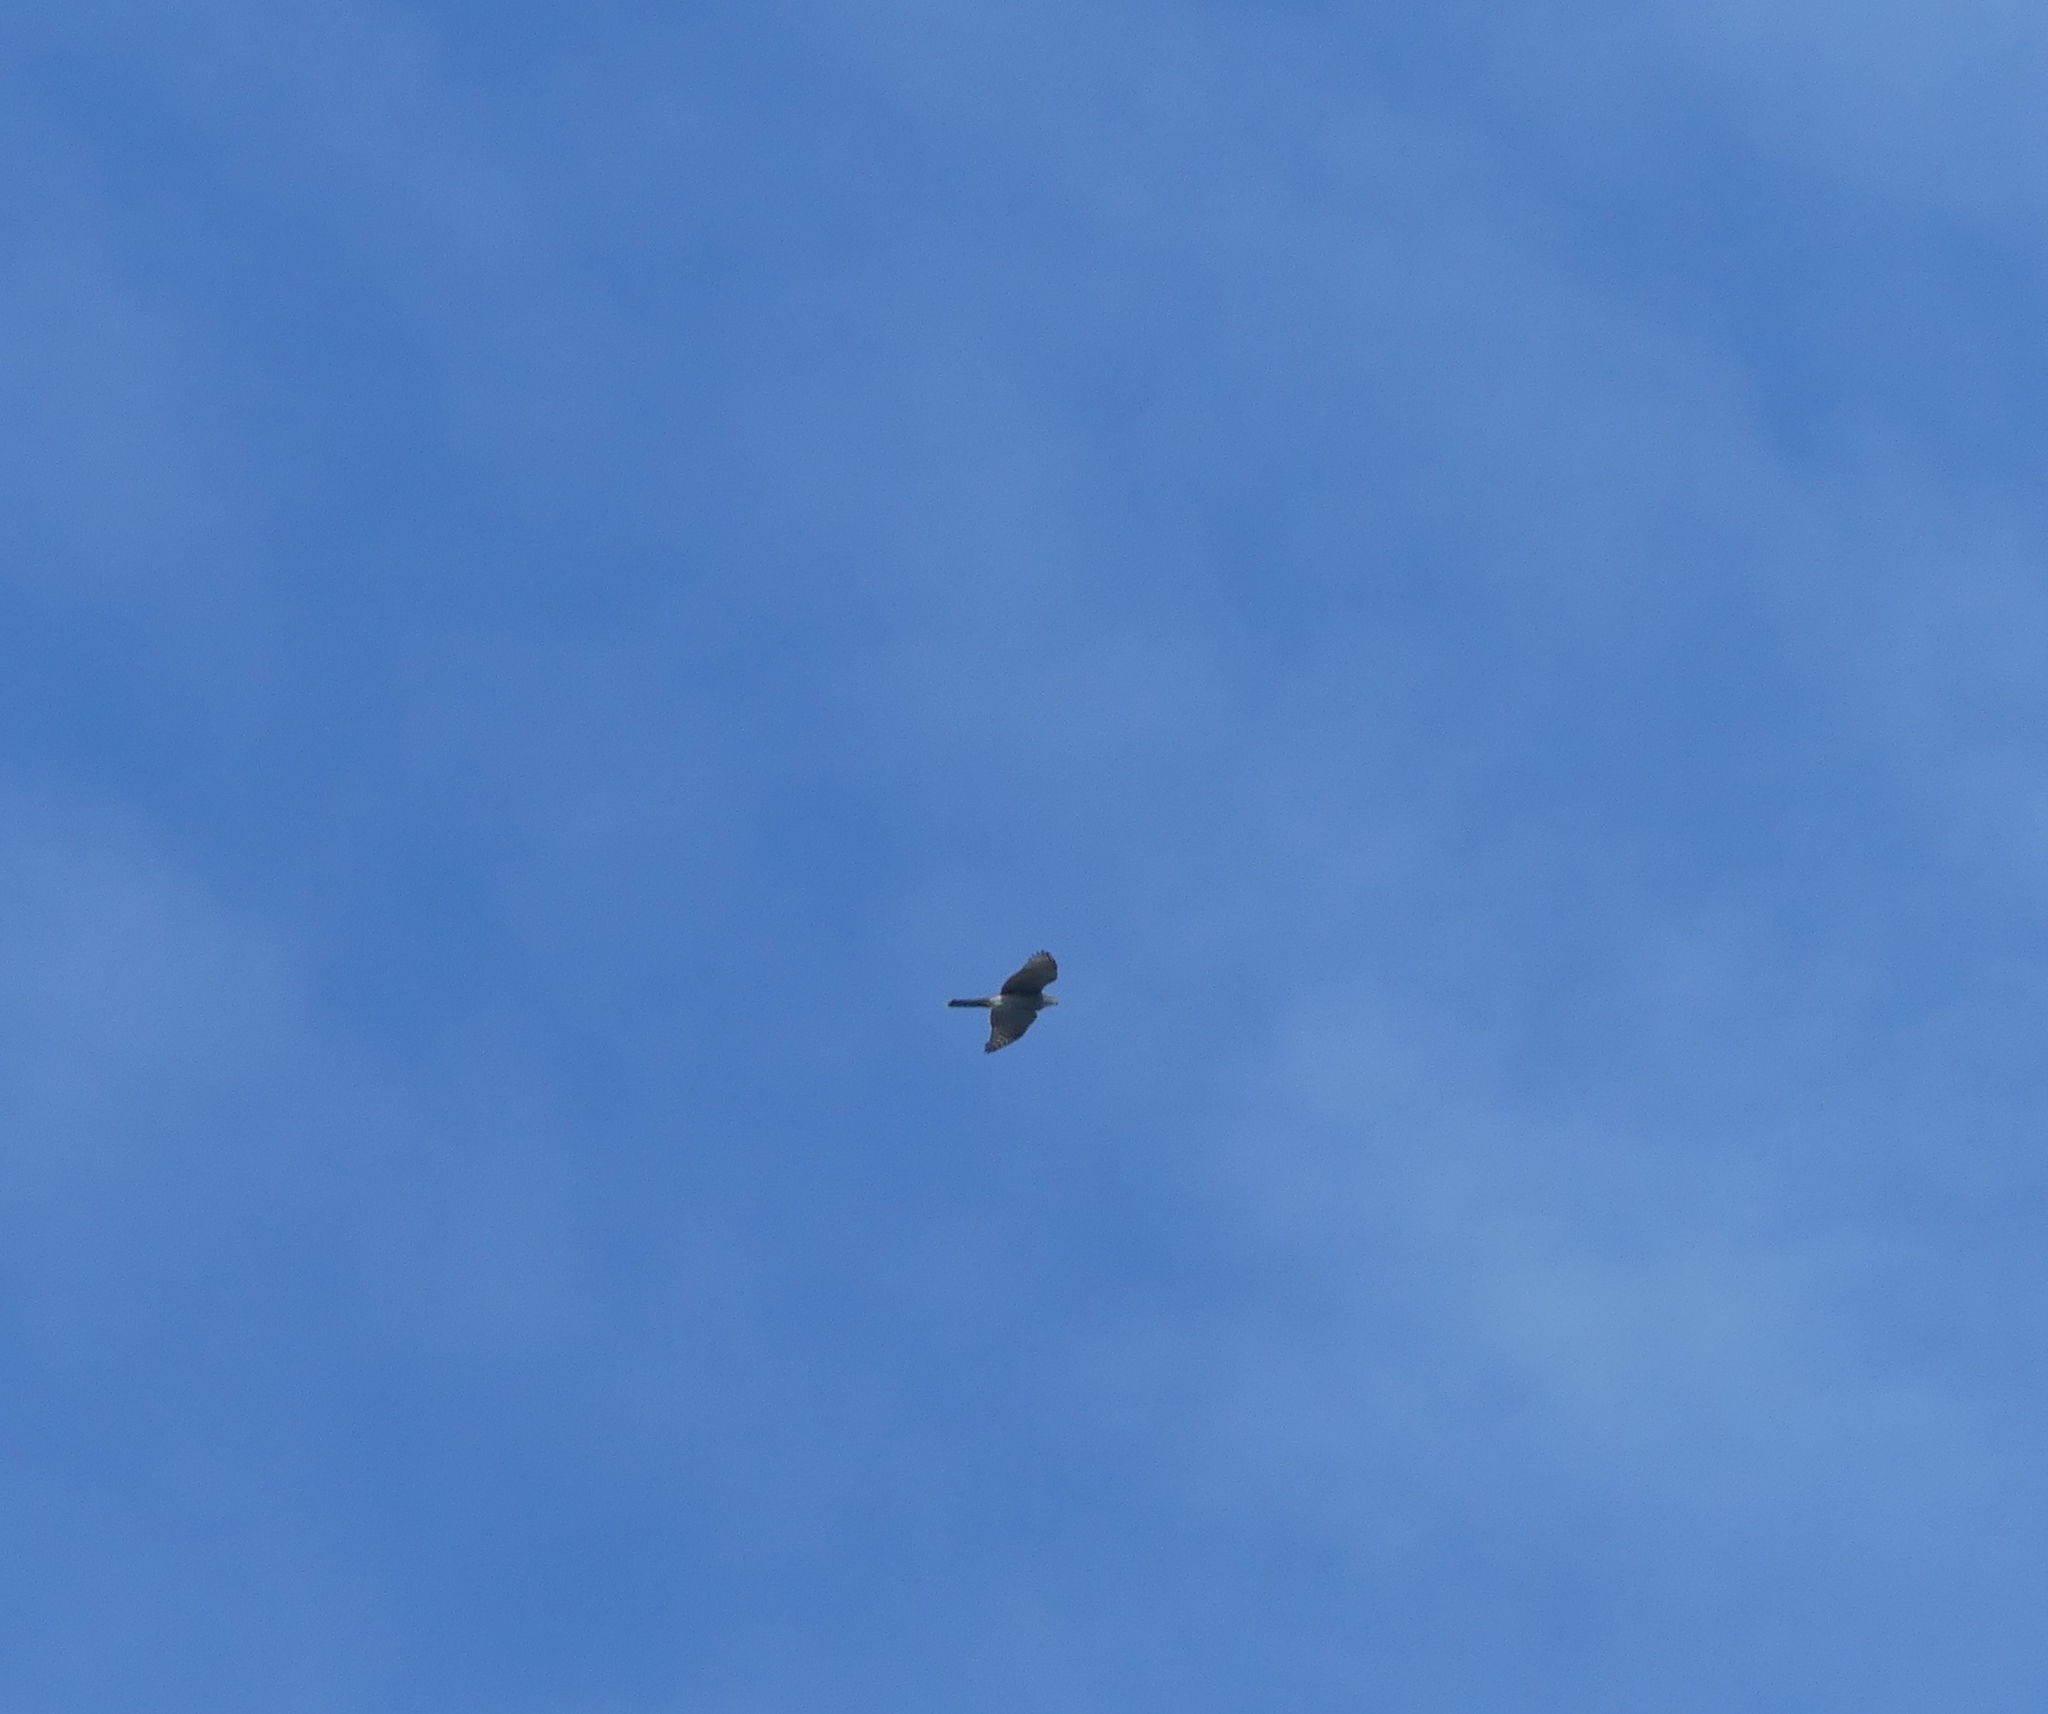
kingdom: Animalia
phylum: Chordata
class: Aves
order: Accipitriformes
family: Accipitridae
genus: Accipiter
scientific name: Accipiter nisus
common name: Eurasian sparrowhawk
